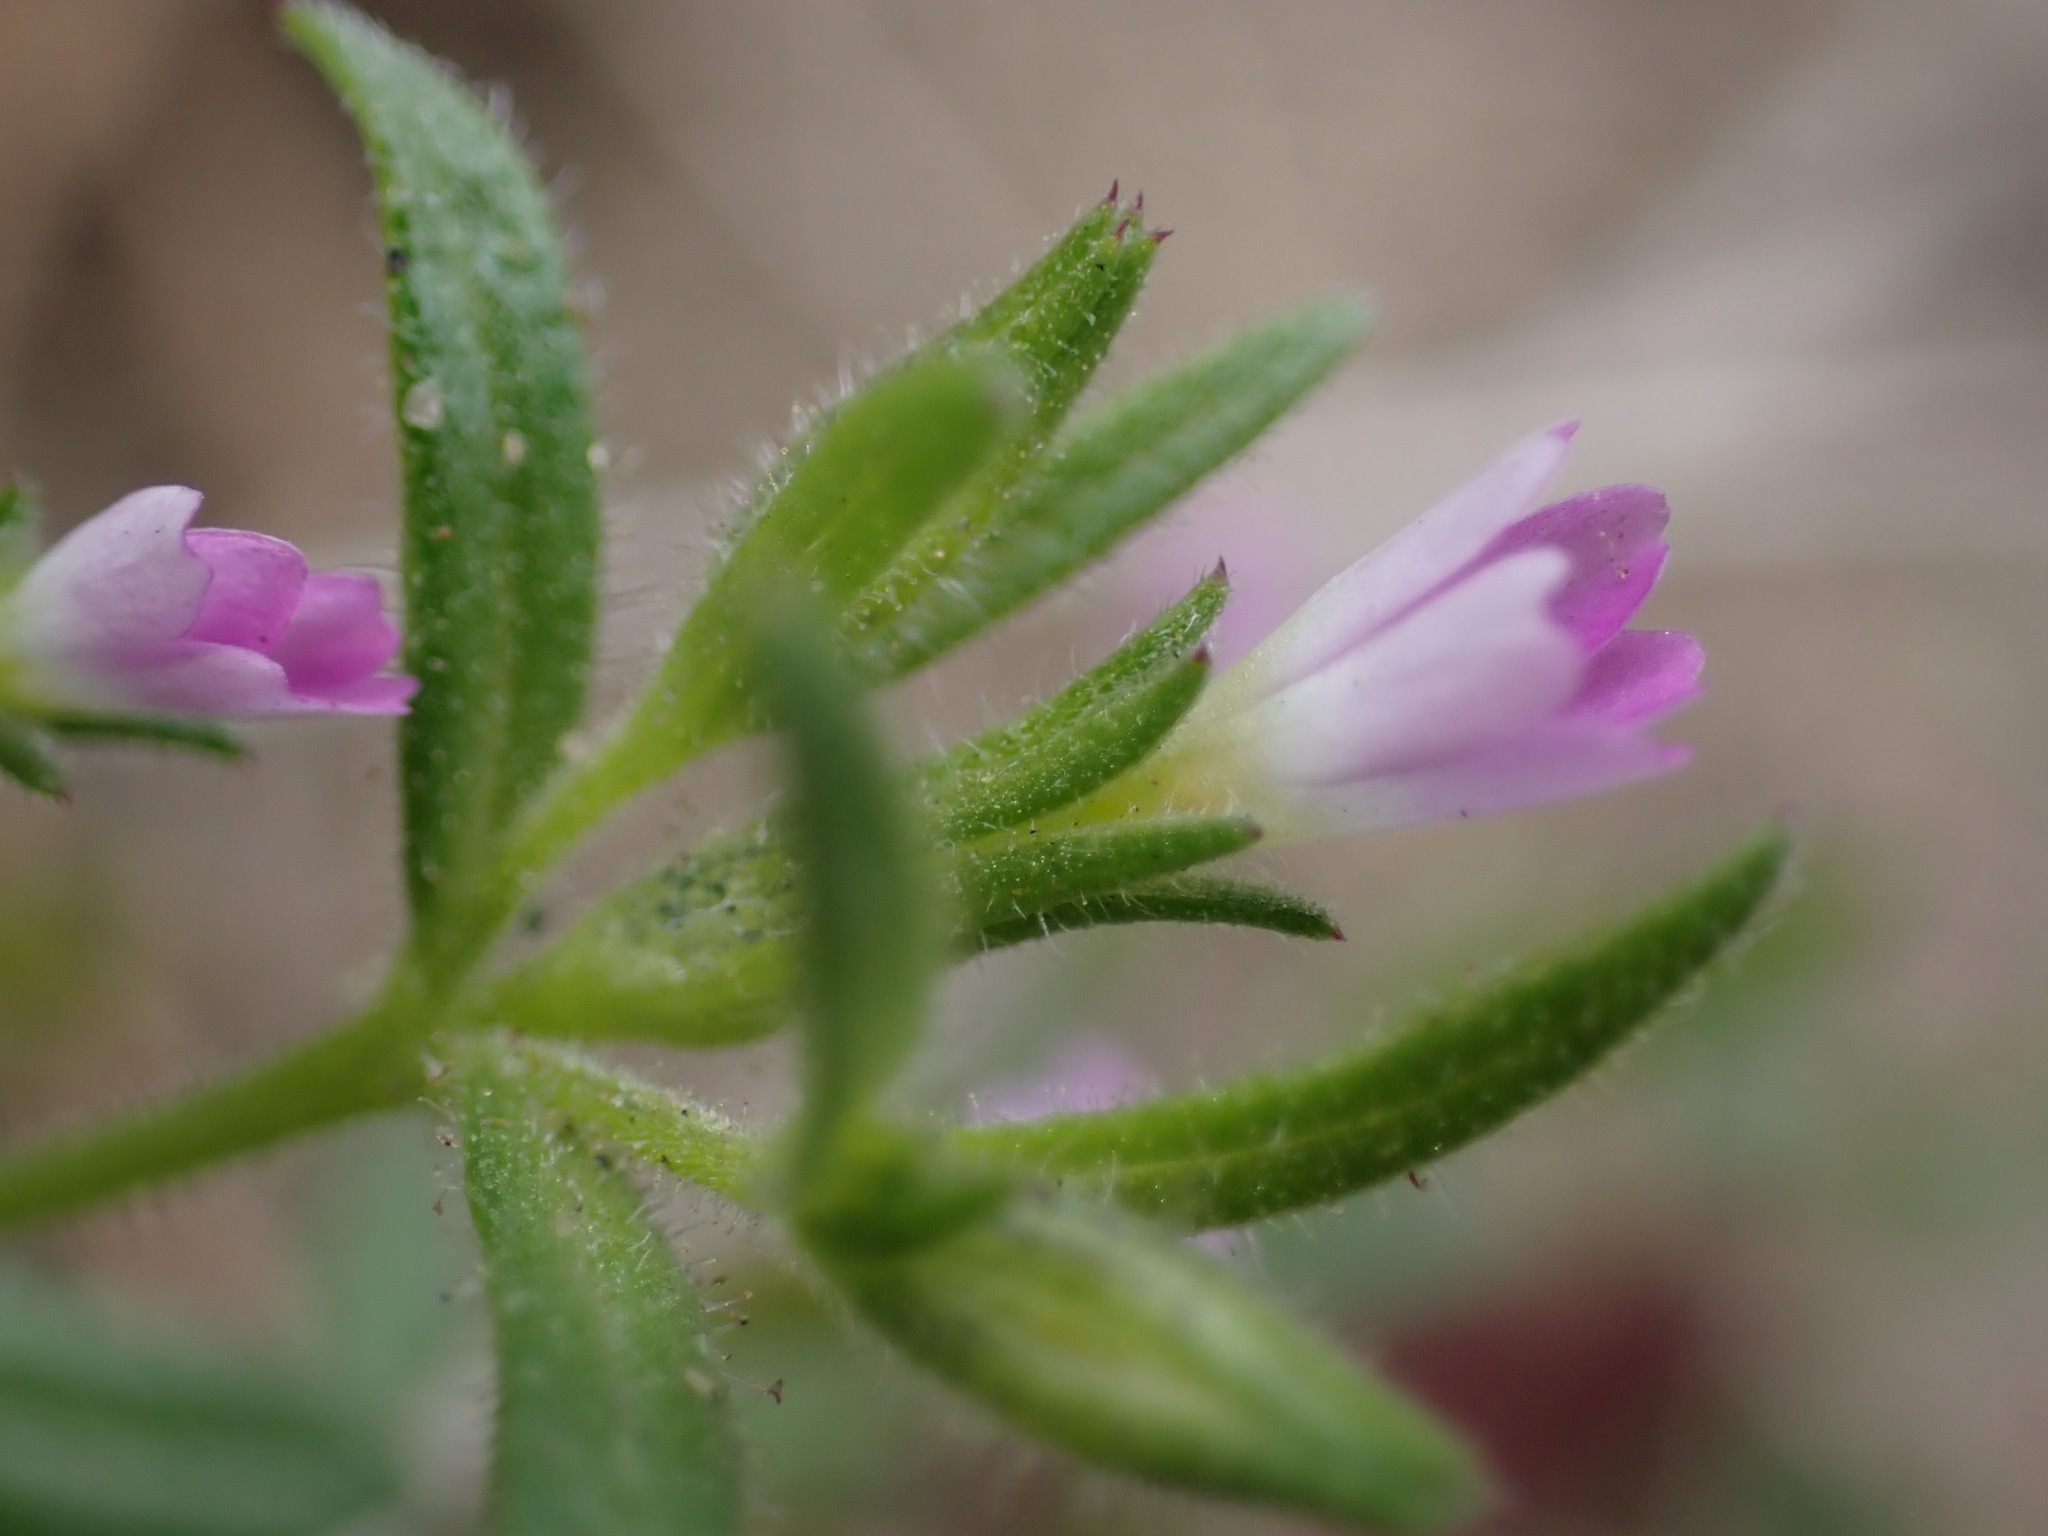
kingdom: Plantae
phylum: Tracheophyta
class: Magnoliopsida
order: Ericales
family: Polemoniaceae
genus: Phlox
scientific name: Phlox gracilis
